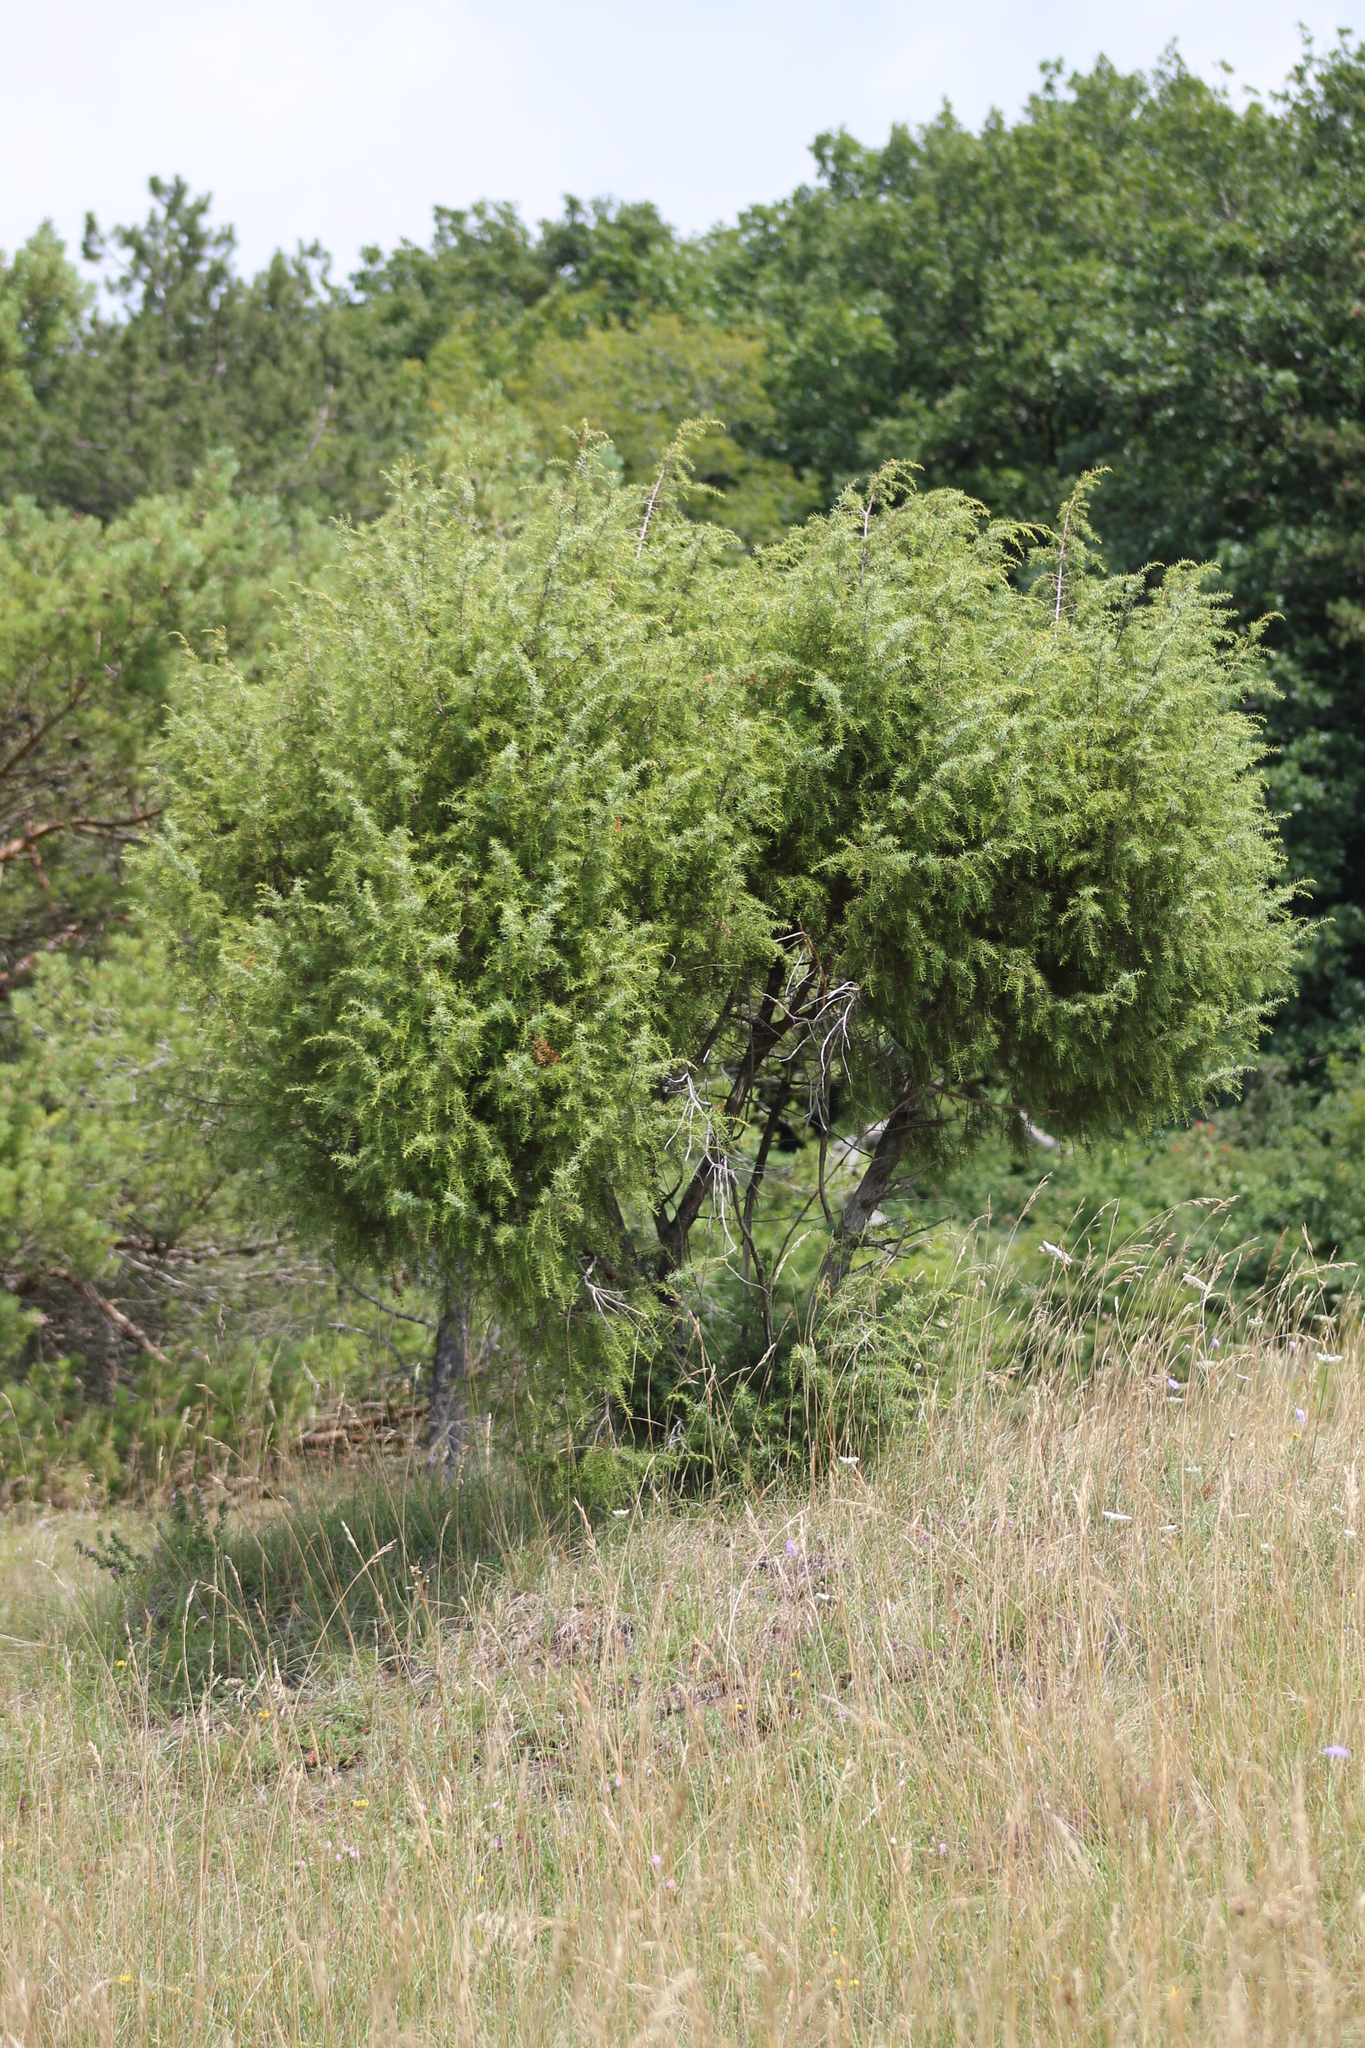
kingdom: Plantae
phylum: Tracheophyta
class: Pinopsida
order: Pinales
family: Cupressaceae
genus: Juniperus
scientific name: Juniperus communis
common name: Common juniper
